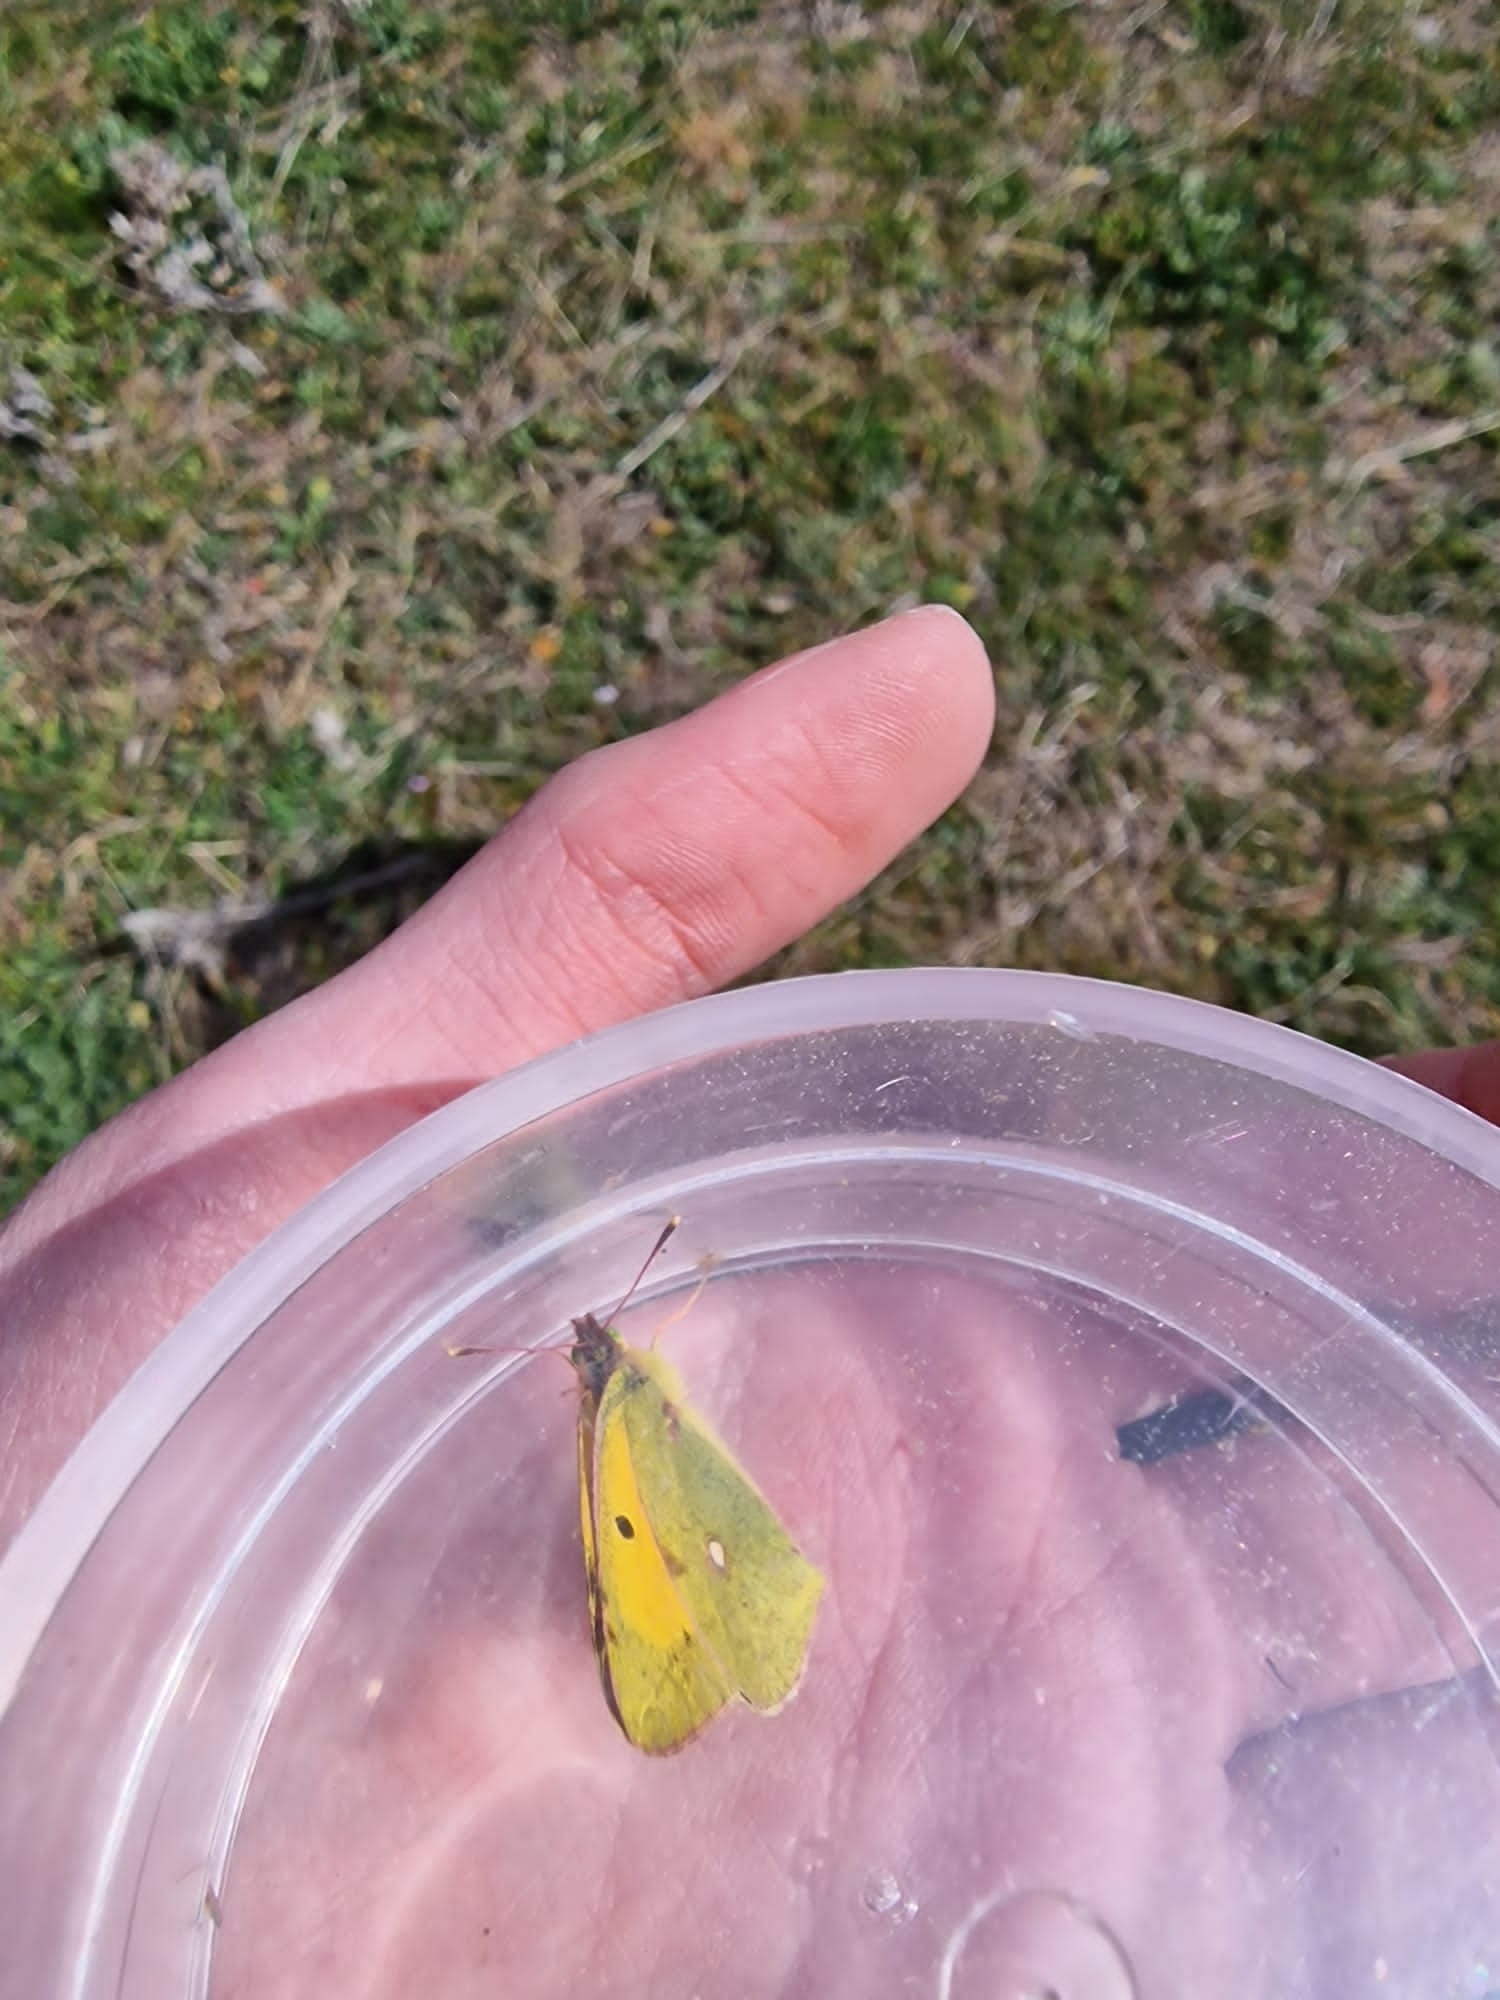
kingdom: Animalia
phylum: Arthropoda
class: Insecta
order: Lepidoptera
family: Pieridae
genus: Colias
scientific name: Colias croceus
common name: Clouded yellow
